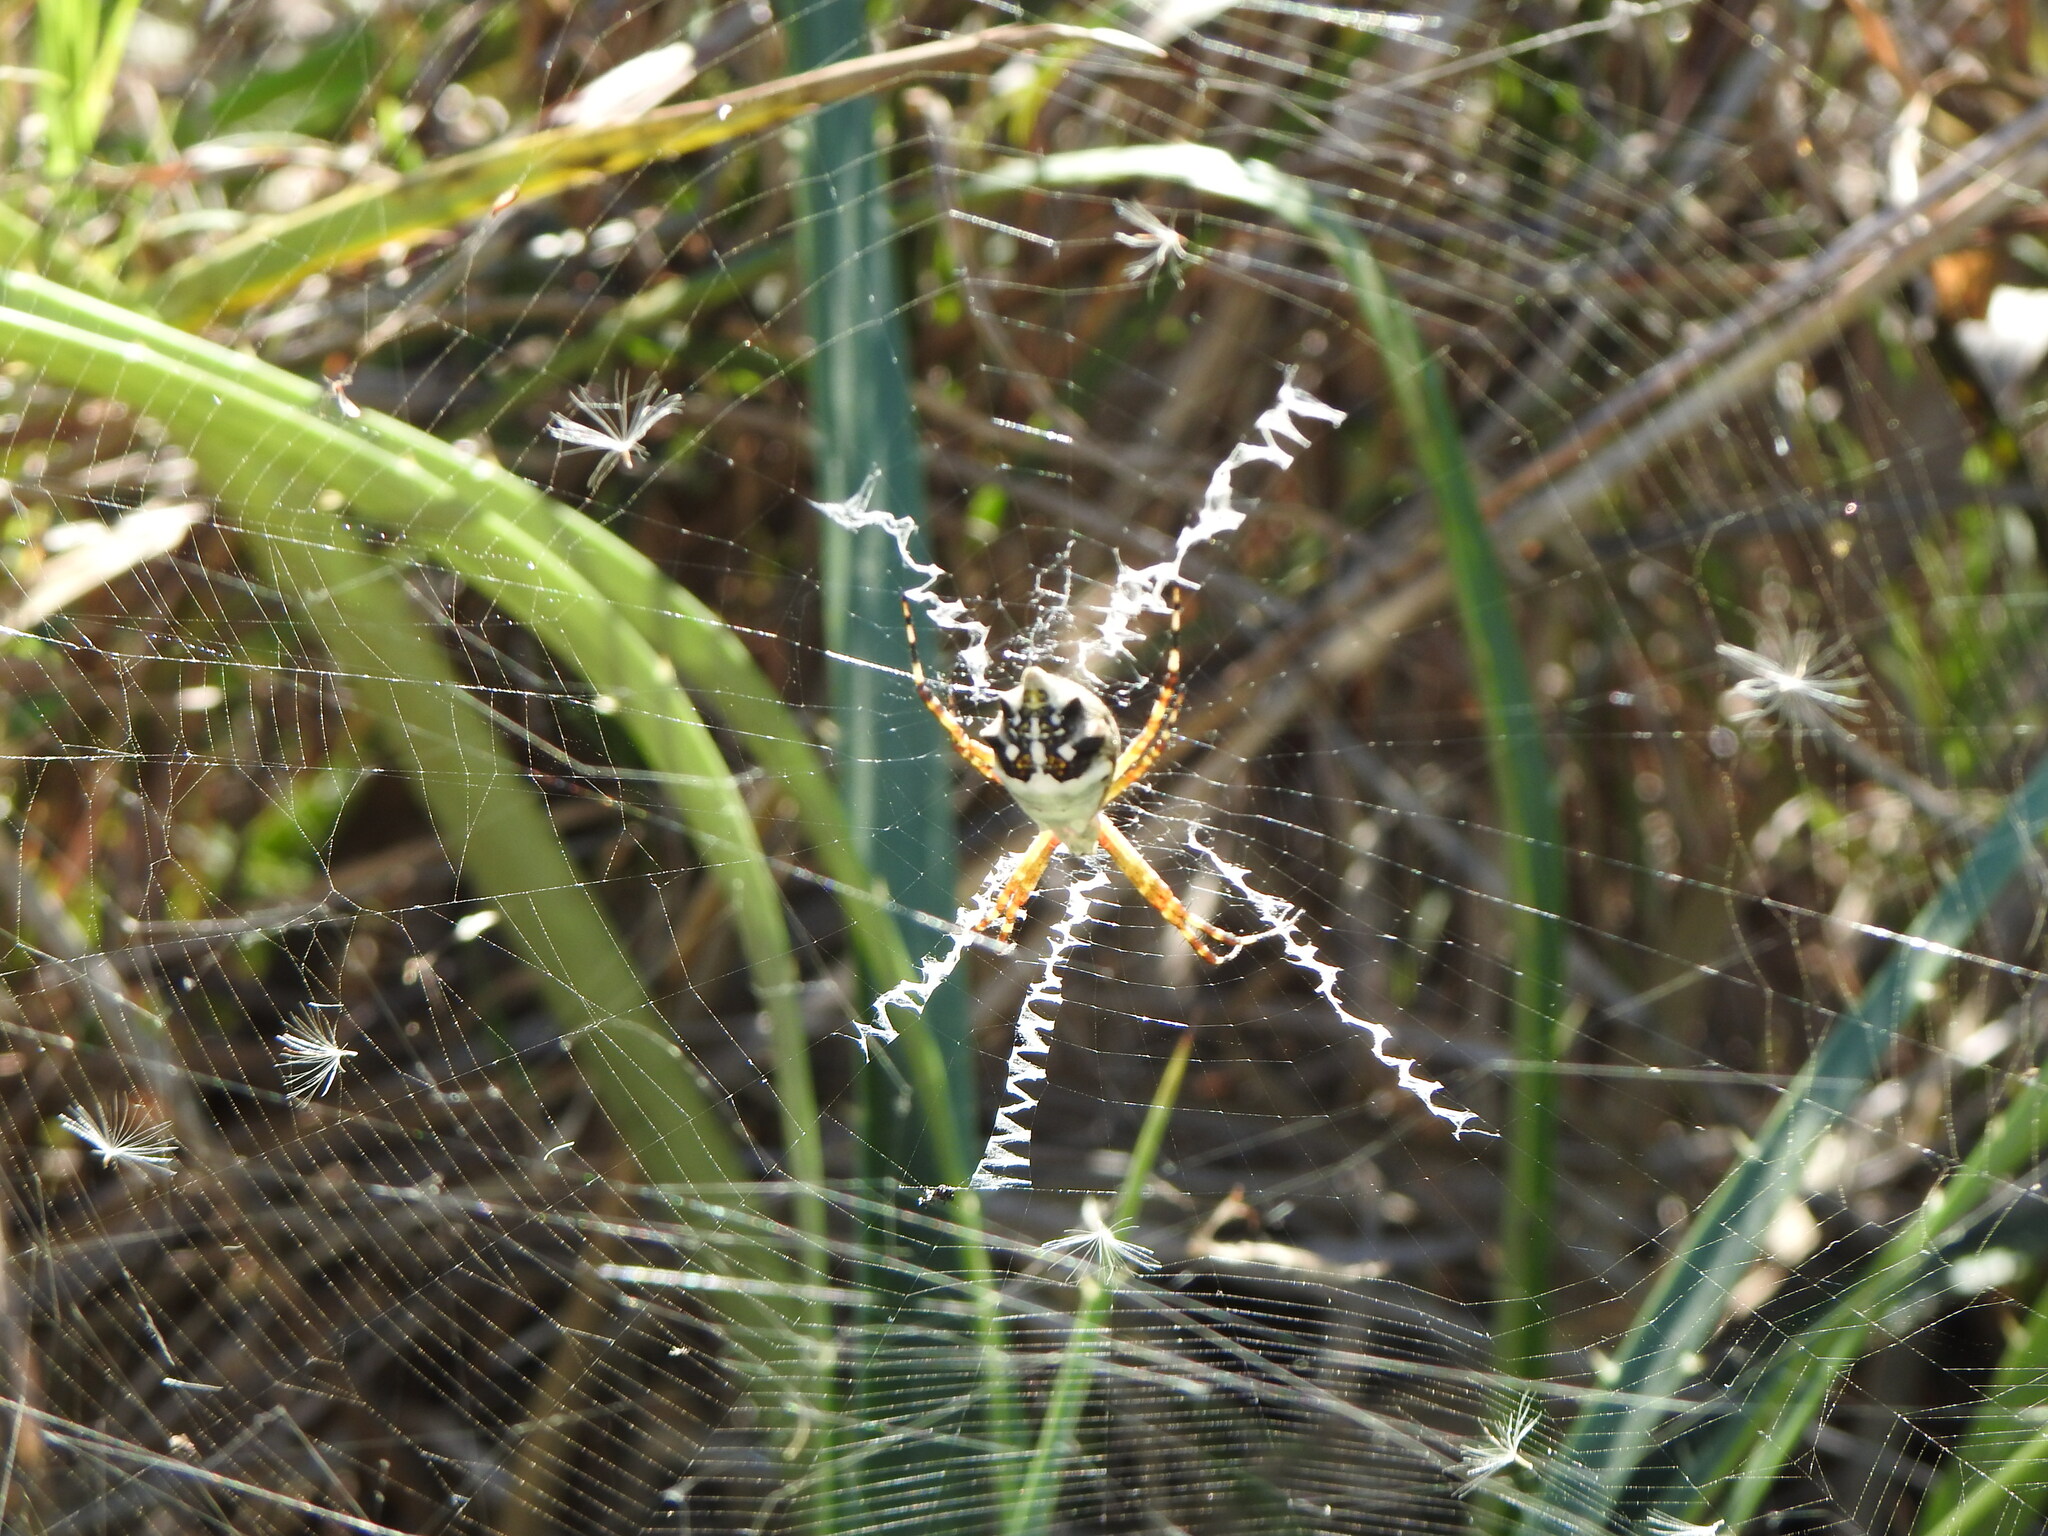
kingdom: Animalia
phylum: Arthropoda
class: Arachnida
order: Araneae
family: Araneidae
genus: Argiope
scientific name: Argiope argentata
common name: Orb weavers
